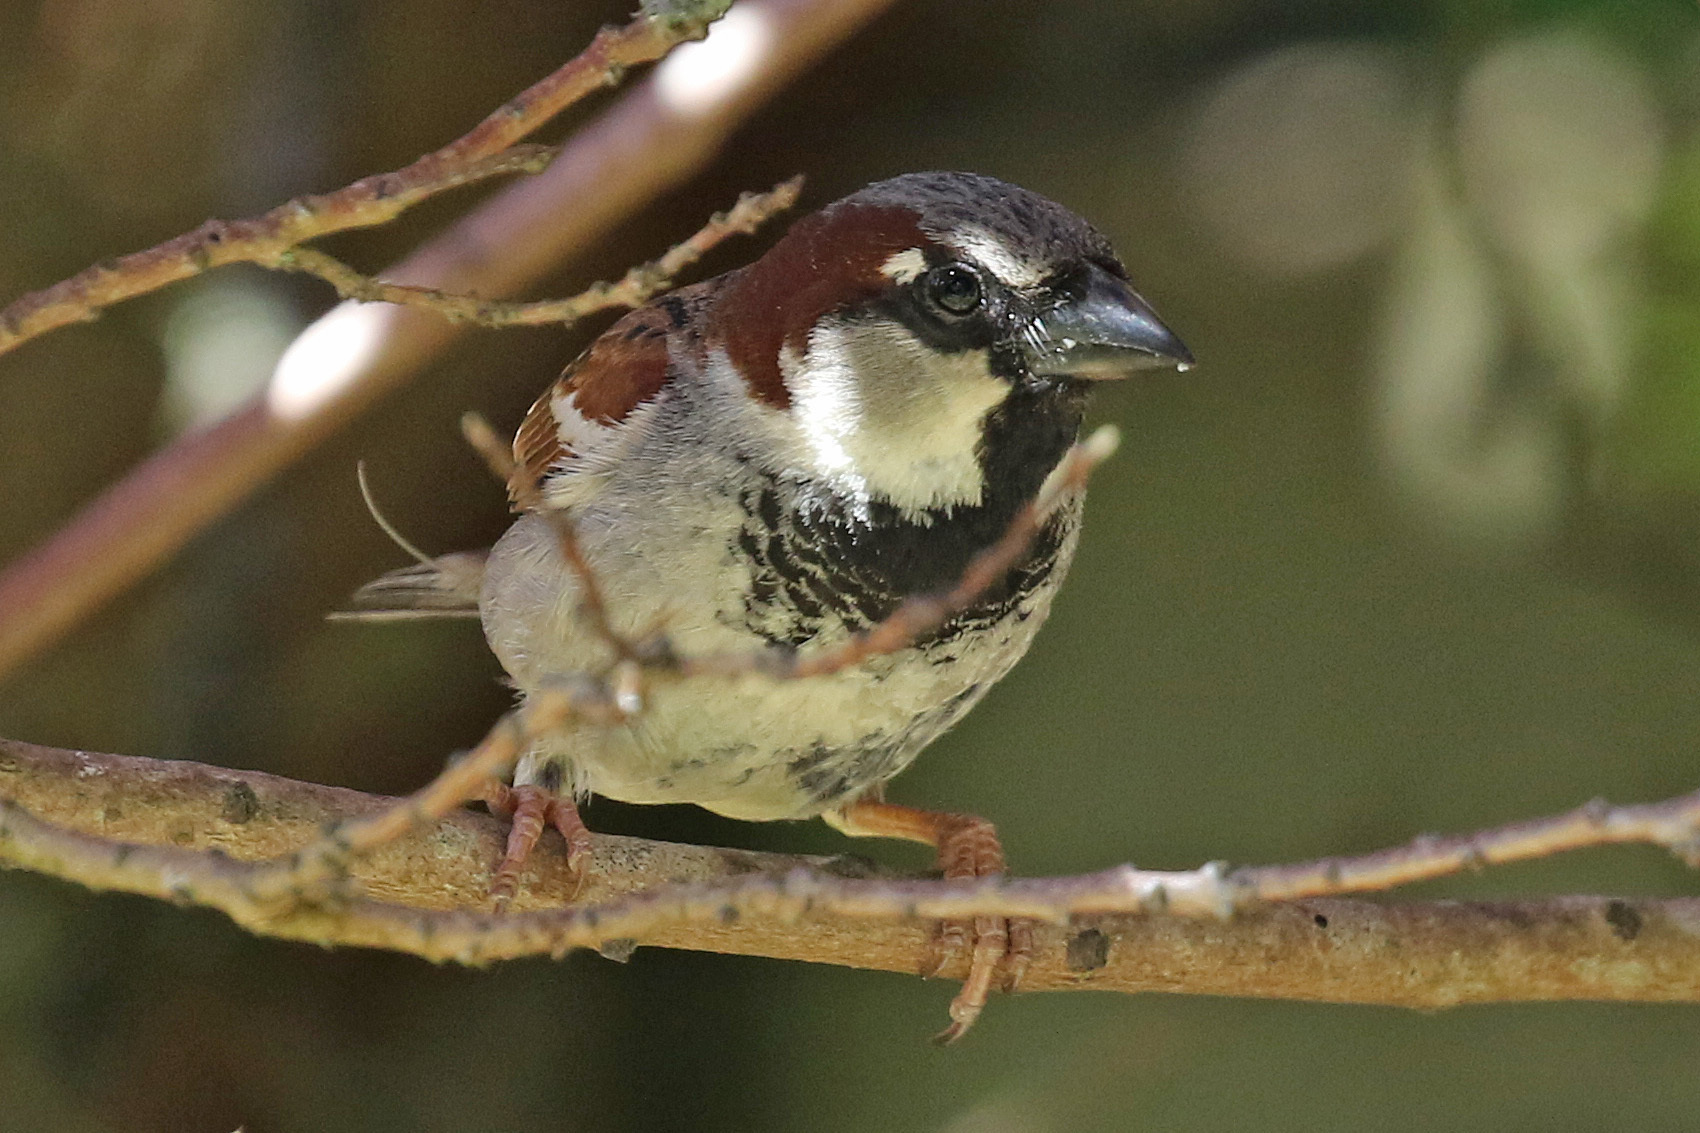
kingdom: Animalia
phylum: Chordata
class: Aves
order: Passeriformes
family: Passeridae
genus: Passer
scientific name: Passer domesticus
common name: House sparrow
